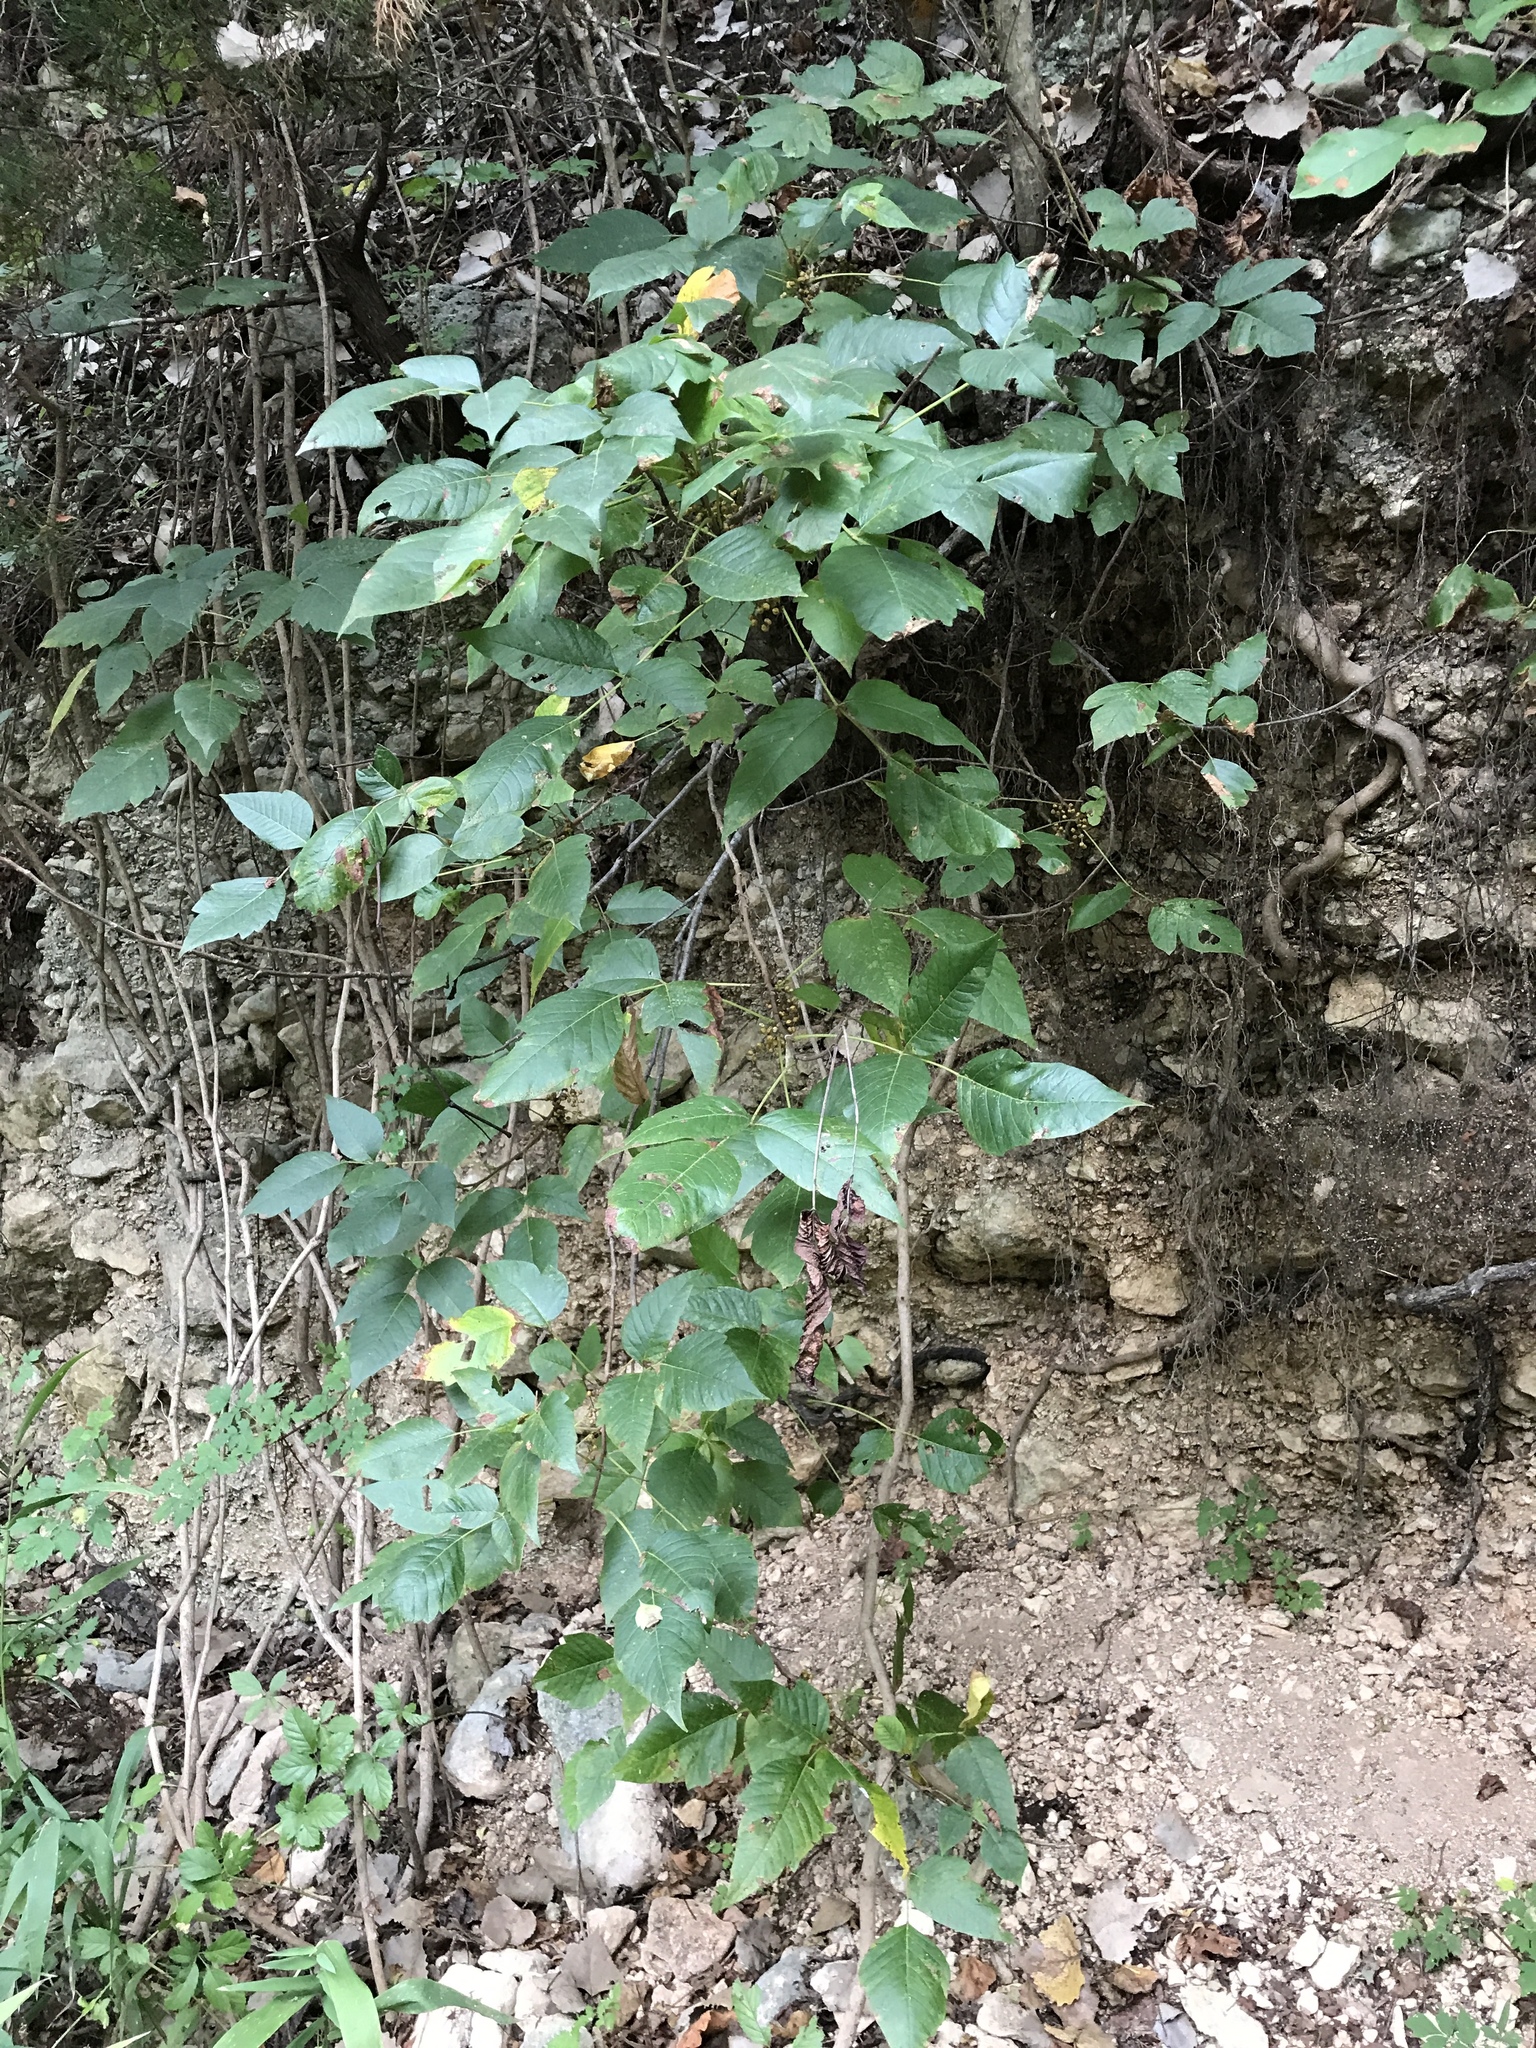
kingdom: Plantae
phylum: Tracheophyta
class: Magnoliopsida
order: Sapindales
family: Anacardiaceae
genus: Toxicodendron
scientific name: Toxicodendron radicans
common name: Poison ivy
